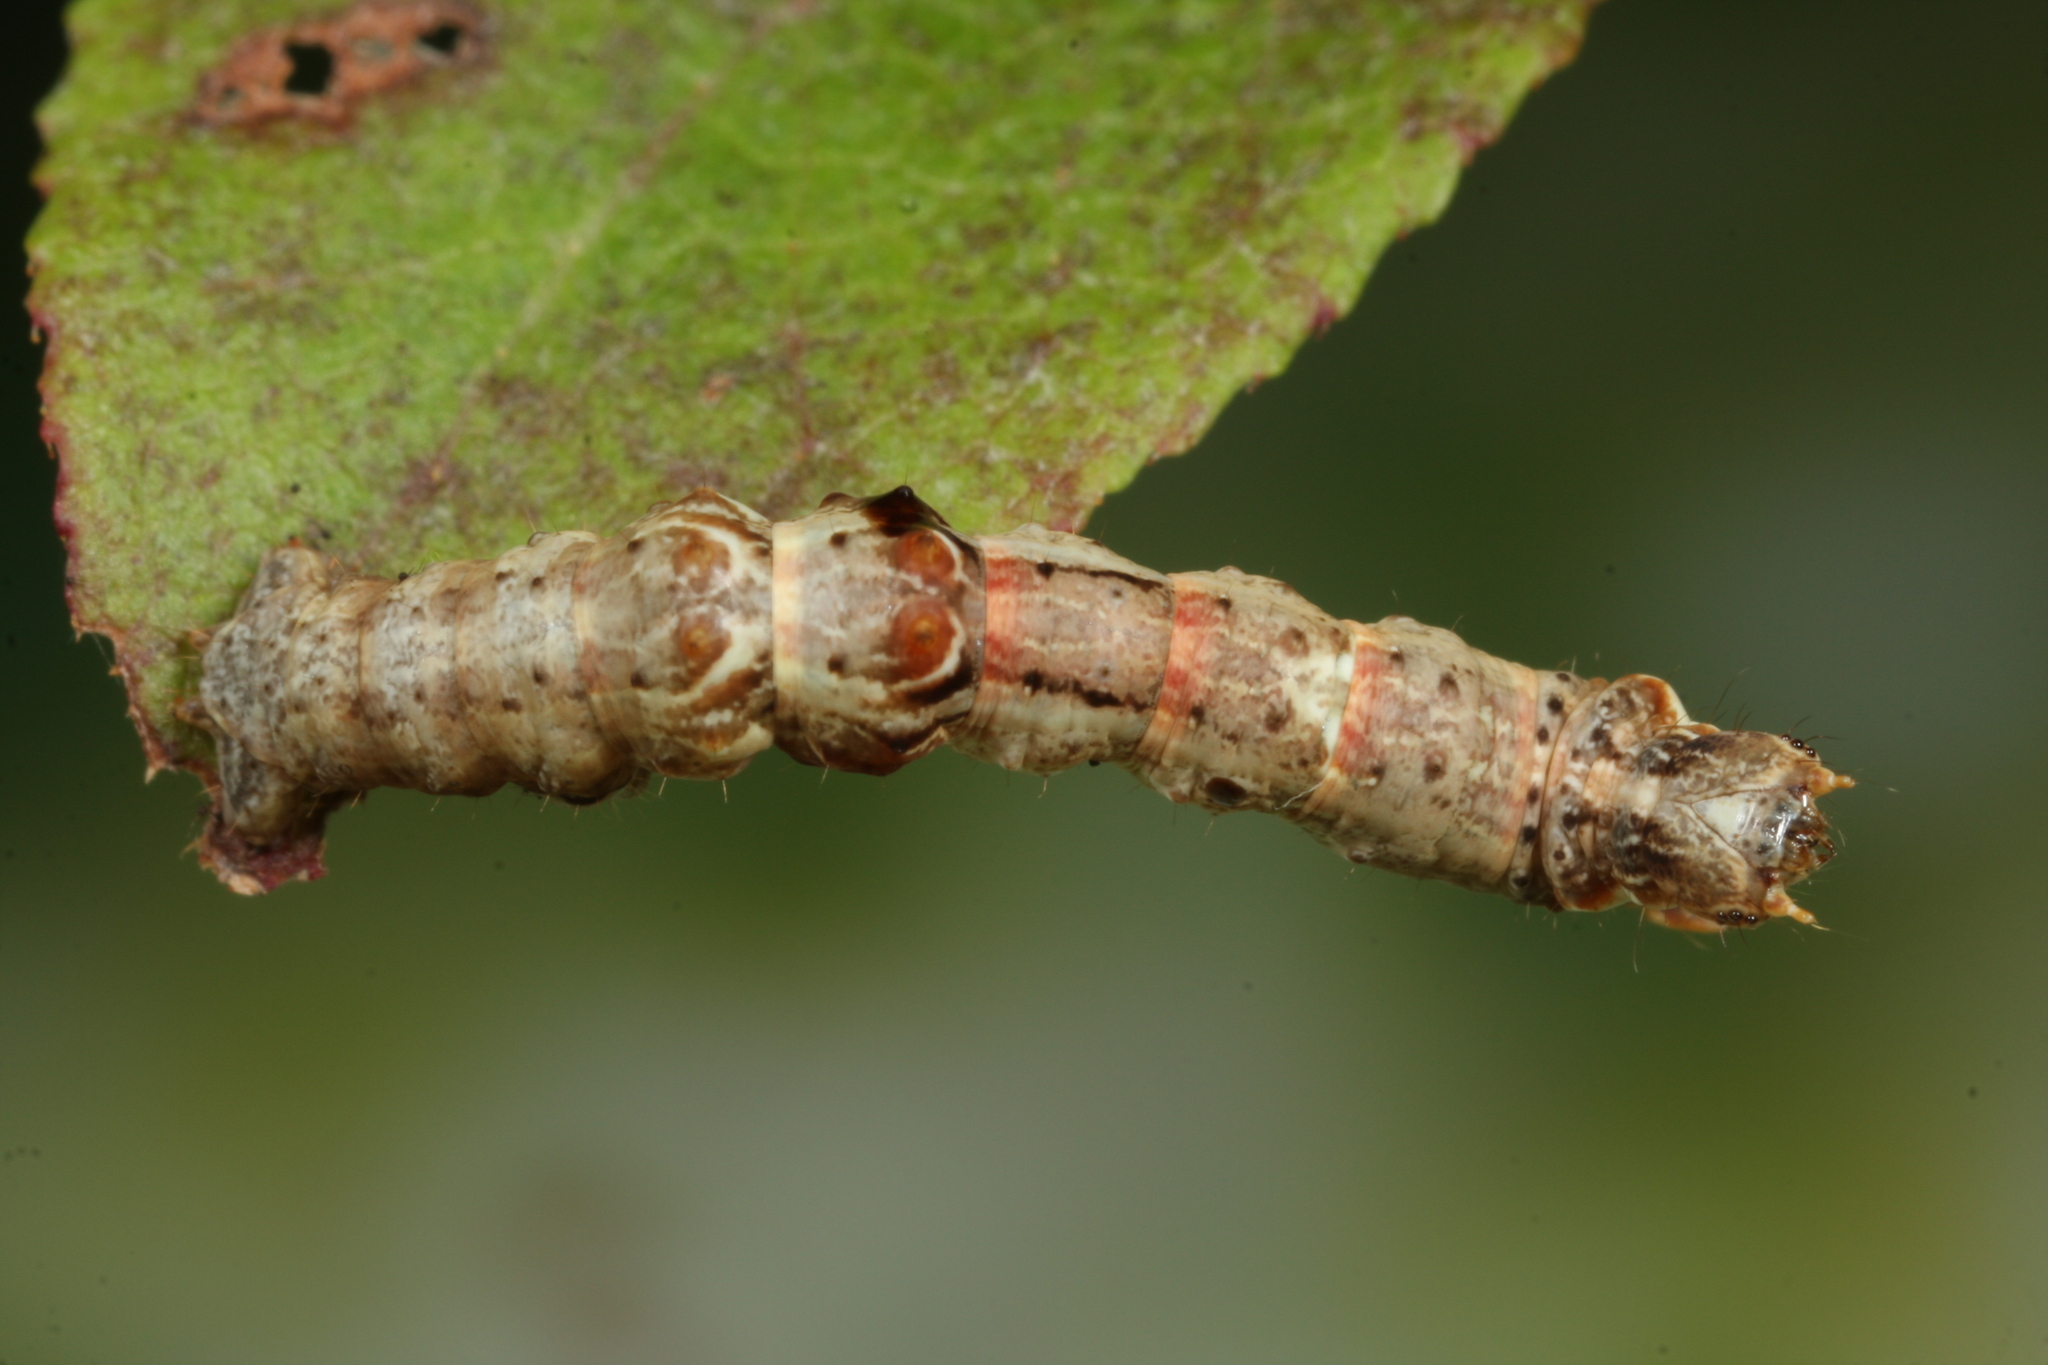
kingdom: Animalia
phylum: Arthropoda
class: Insecta
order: Lepidoptera
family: Geometridae
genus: Selenia
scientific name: Selenia dentaria
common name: Early thorn
